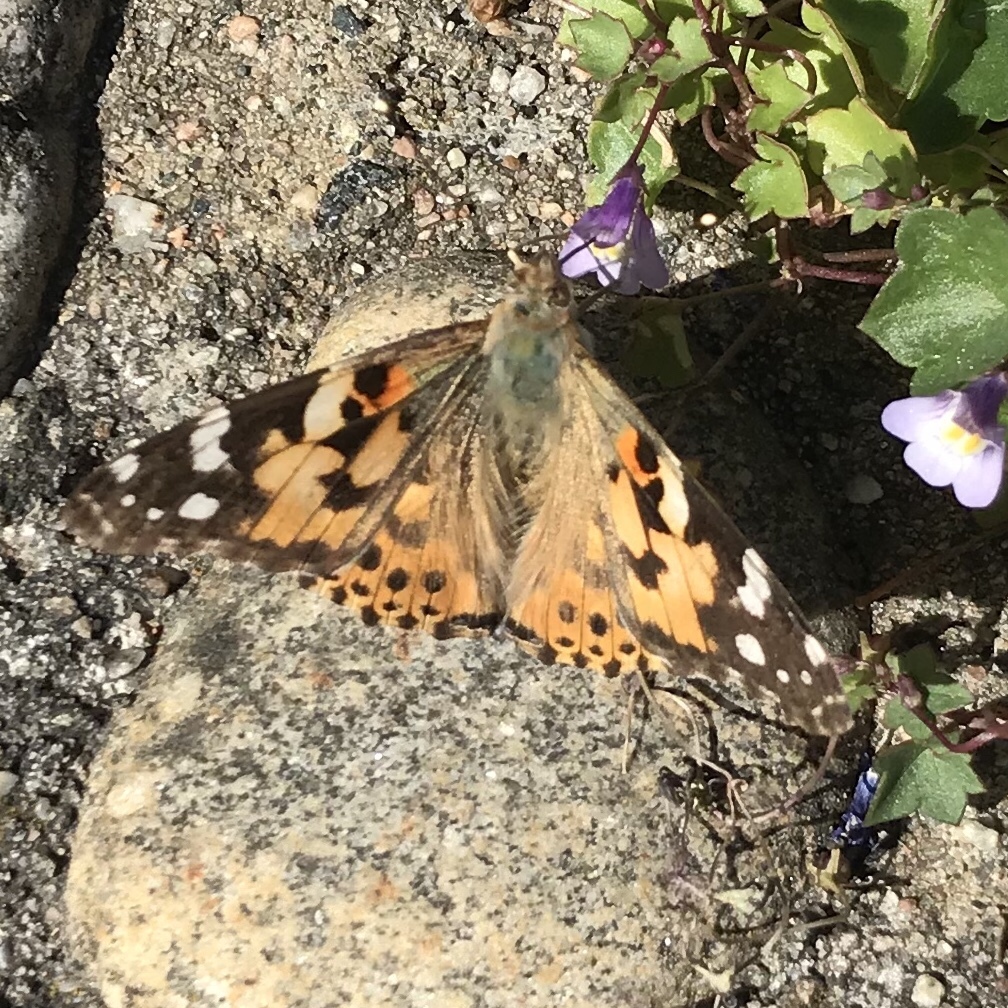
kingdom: Animalia
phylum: Arthropoda
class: Insecta
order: Lepidoptera
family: Nymphalidae
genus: Vanessa
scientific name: Vanessa cardui
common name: Painted lady
